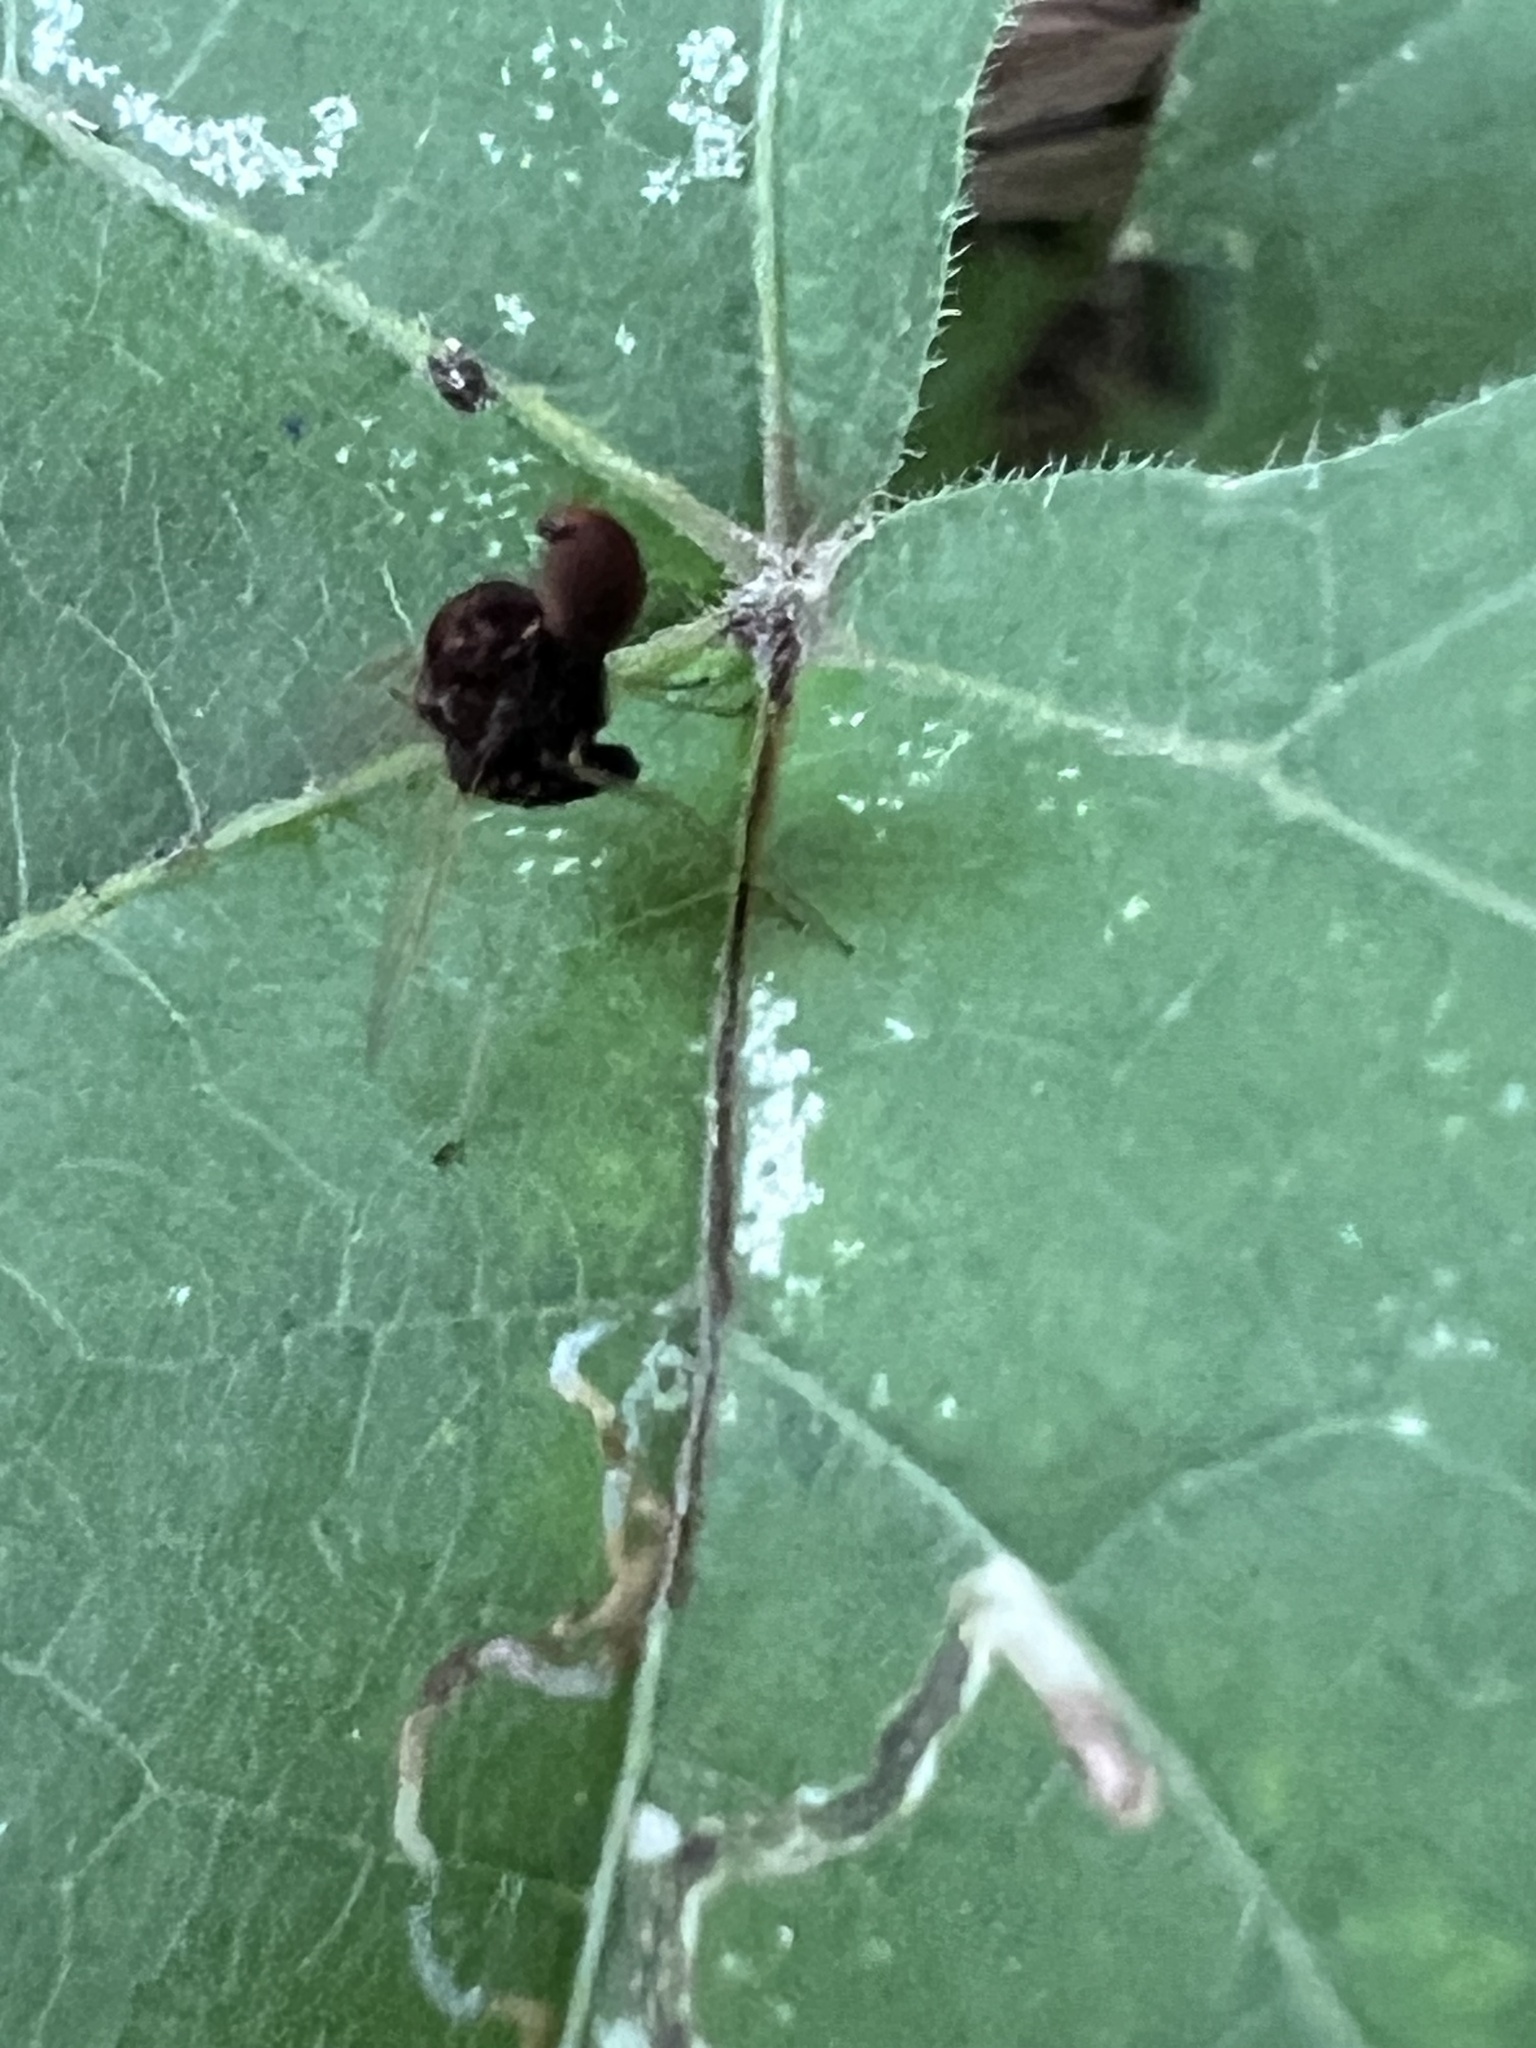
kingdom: Animalia
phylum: Arthropoda
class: Insecta
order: Diptera
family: Rhagionidae
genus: Chrysopilus
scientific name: Chrysopilus basilaris
